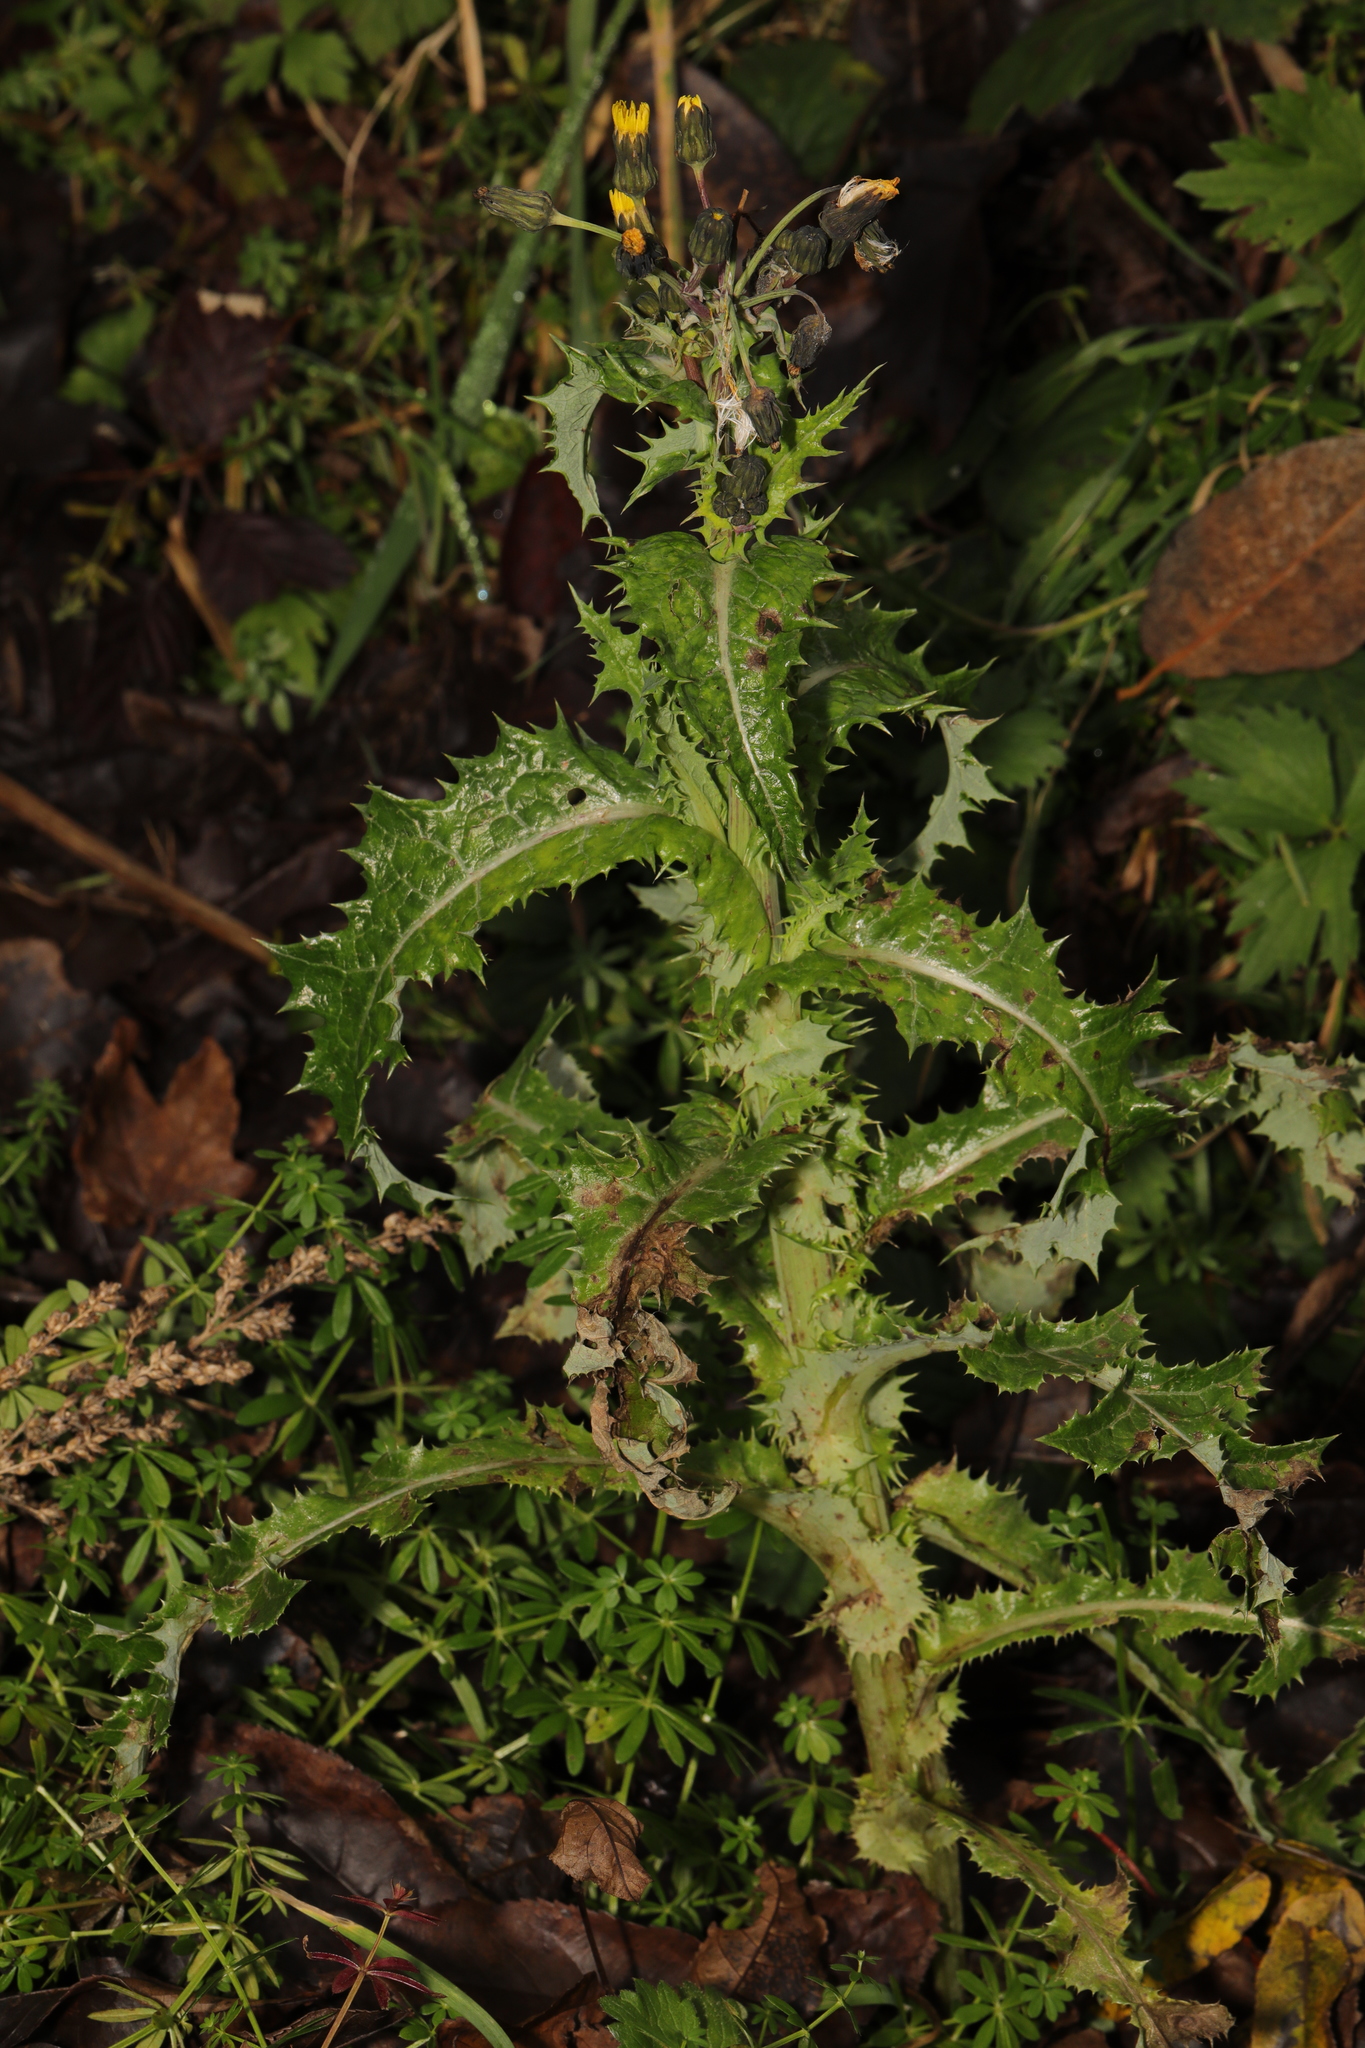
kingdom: Plantae
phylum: Tracheophyta
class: Magnoliopsida
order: Asterales
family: Asteraceae
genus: Sonchus
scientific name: Sonchus asper
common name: Prickly sow-thistle
